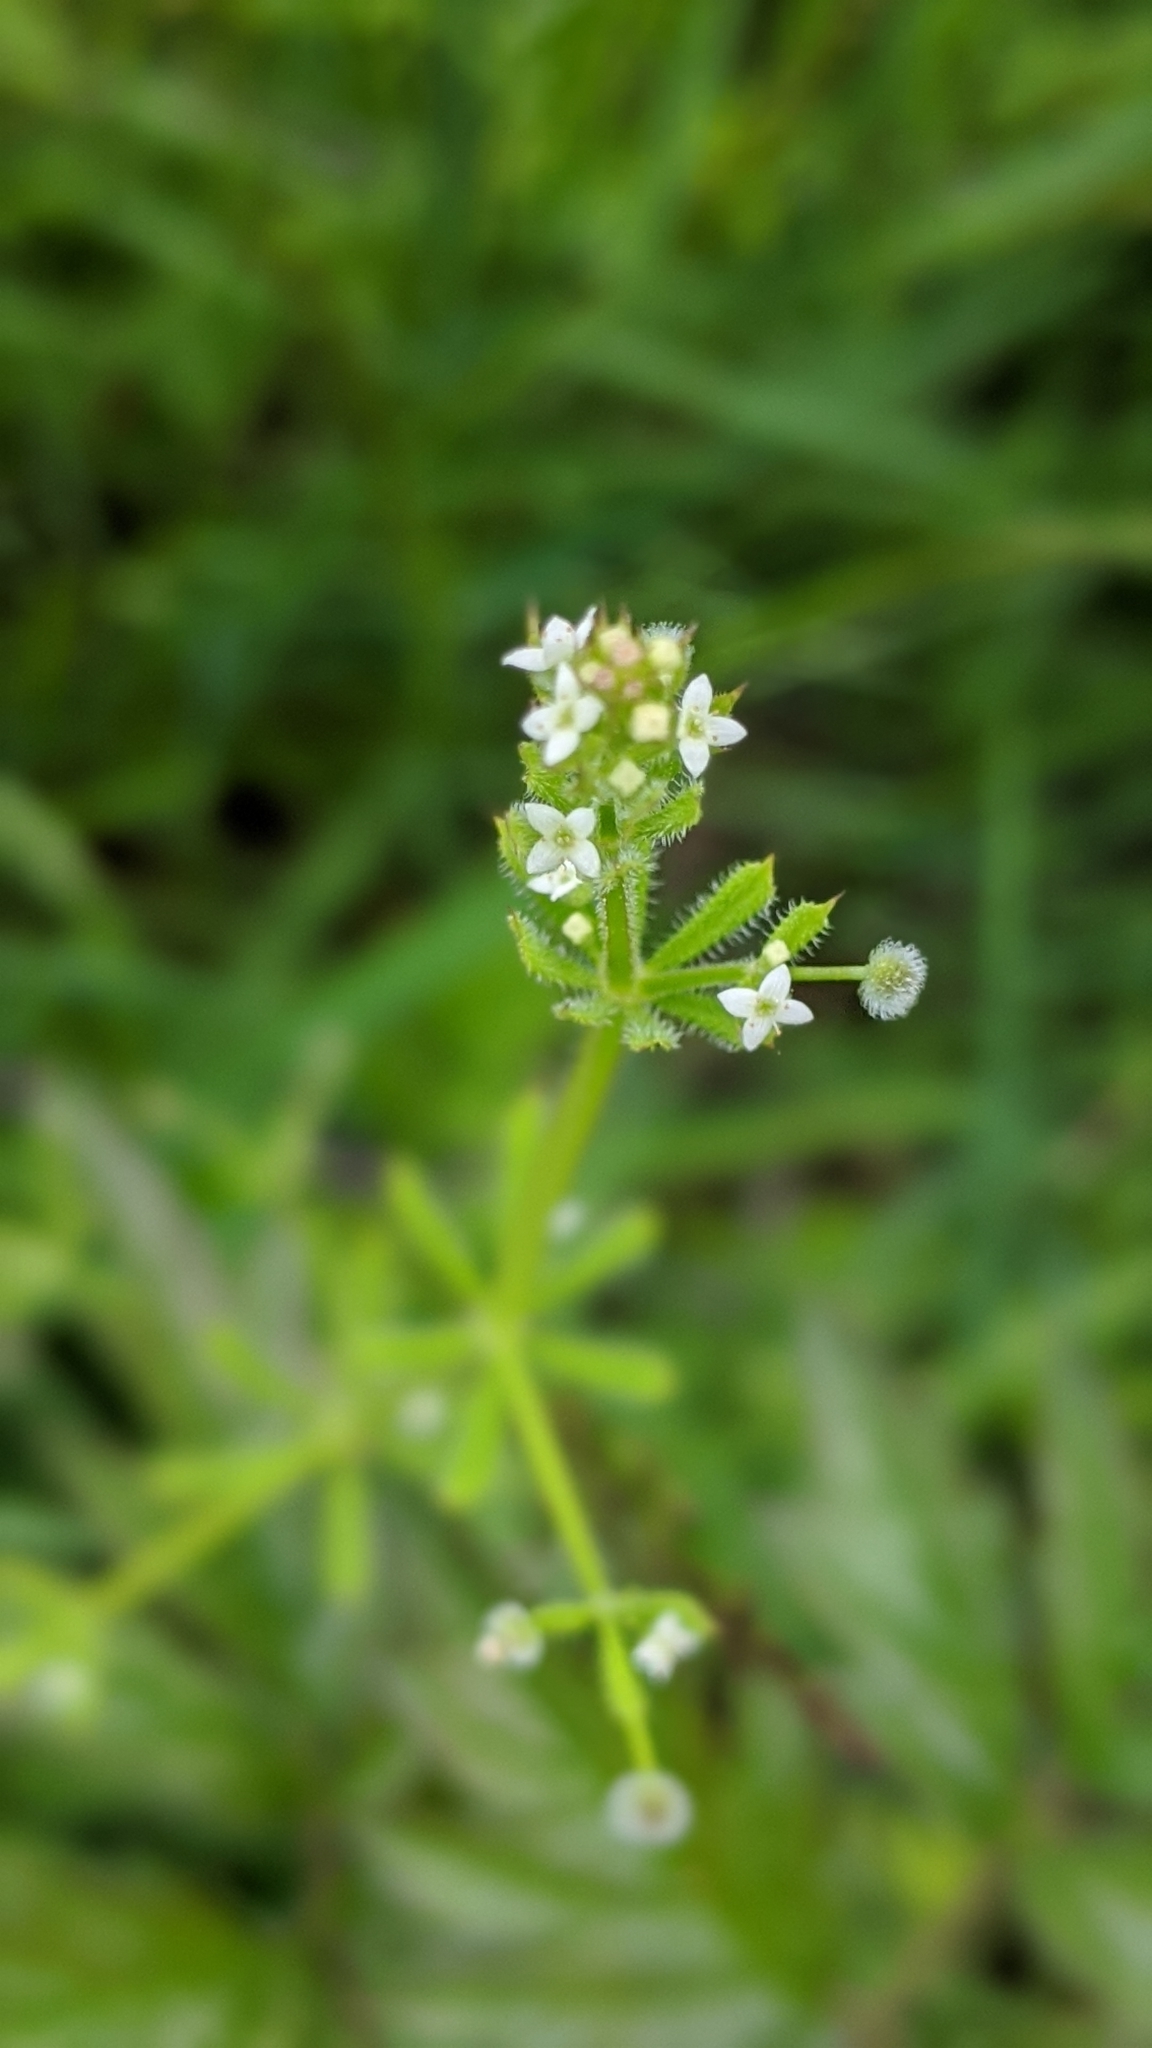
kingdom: Plantae
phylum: Tracheophyta
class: Magnoliopsida
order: Gentianales
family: Rubiaceae
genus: Galium
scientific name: Galium aparine
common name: Cleavers
